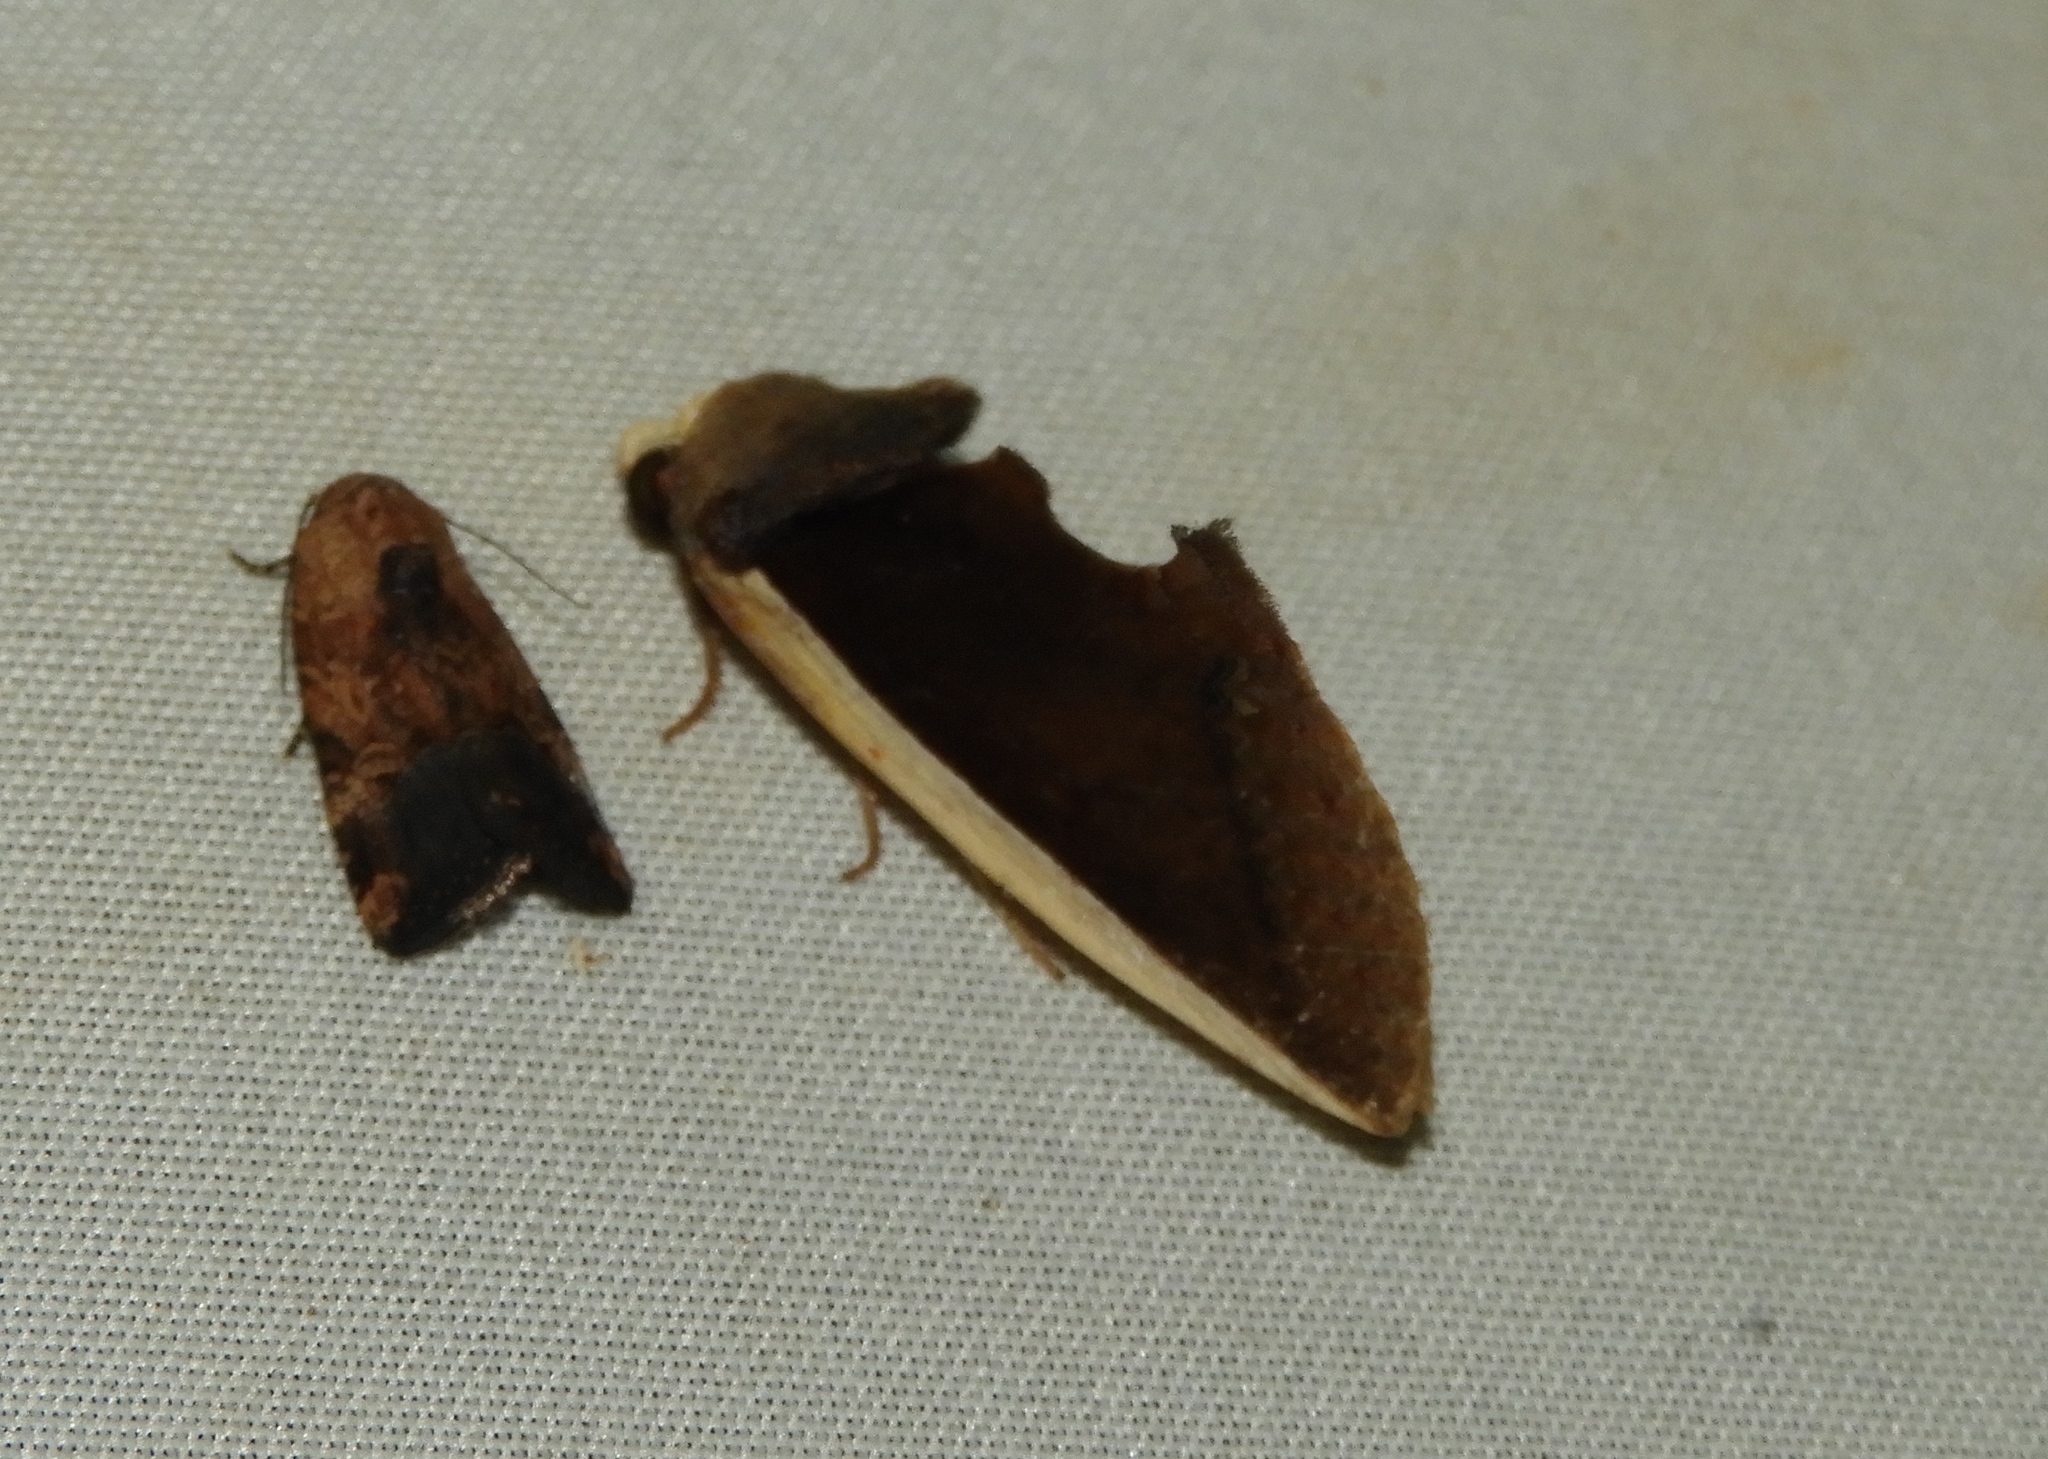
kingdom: Animalia
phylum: Arthropoda
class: Insecta
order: Lepidoptera
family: Erebidae
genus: Gonodonta
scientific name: Gonodonta pyrgo
